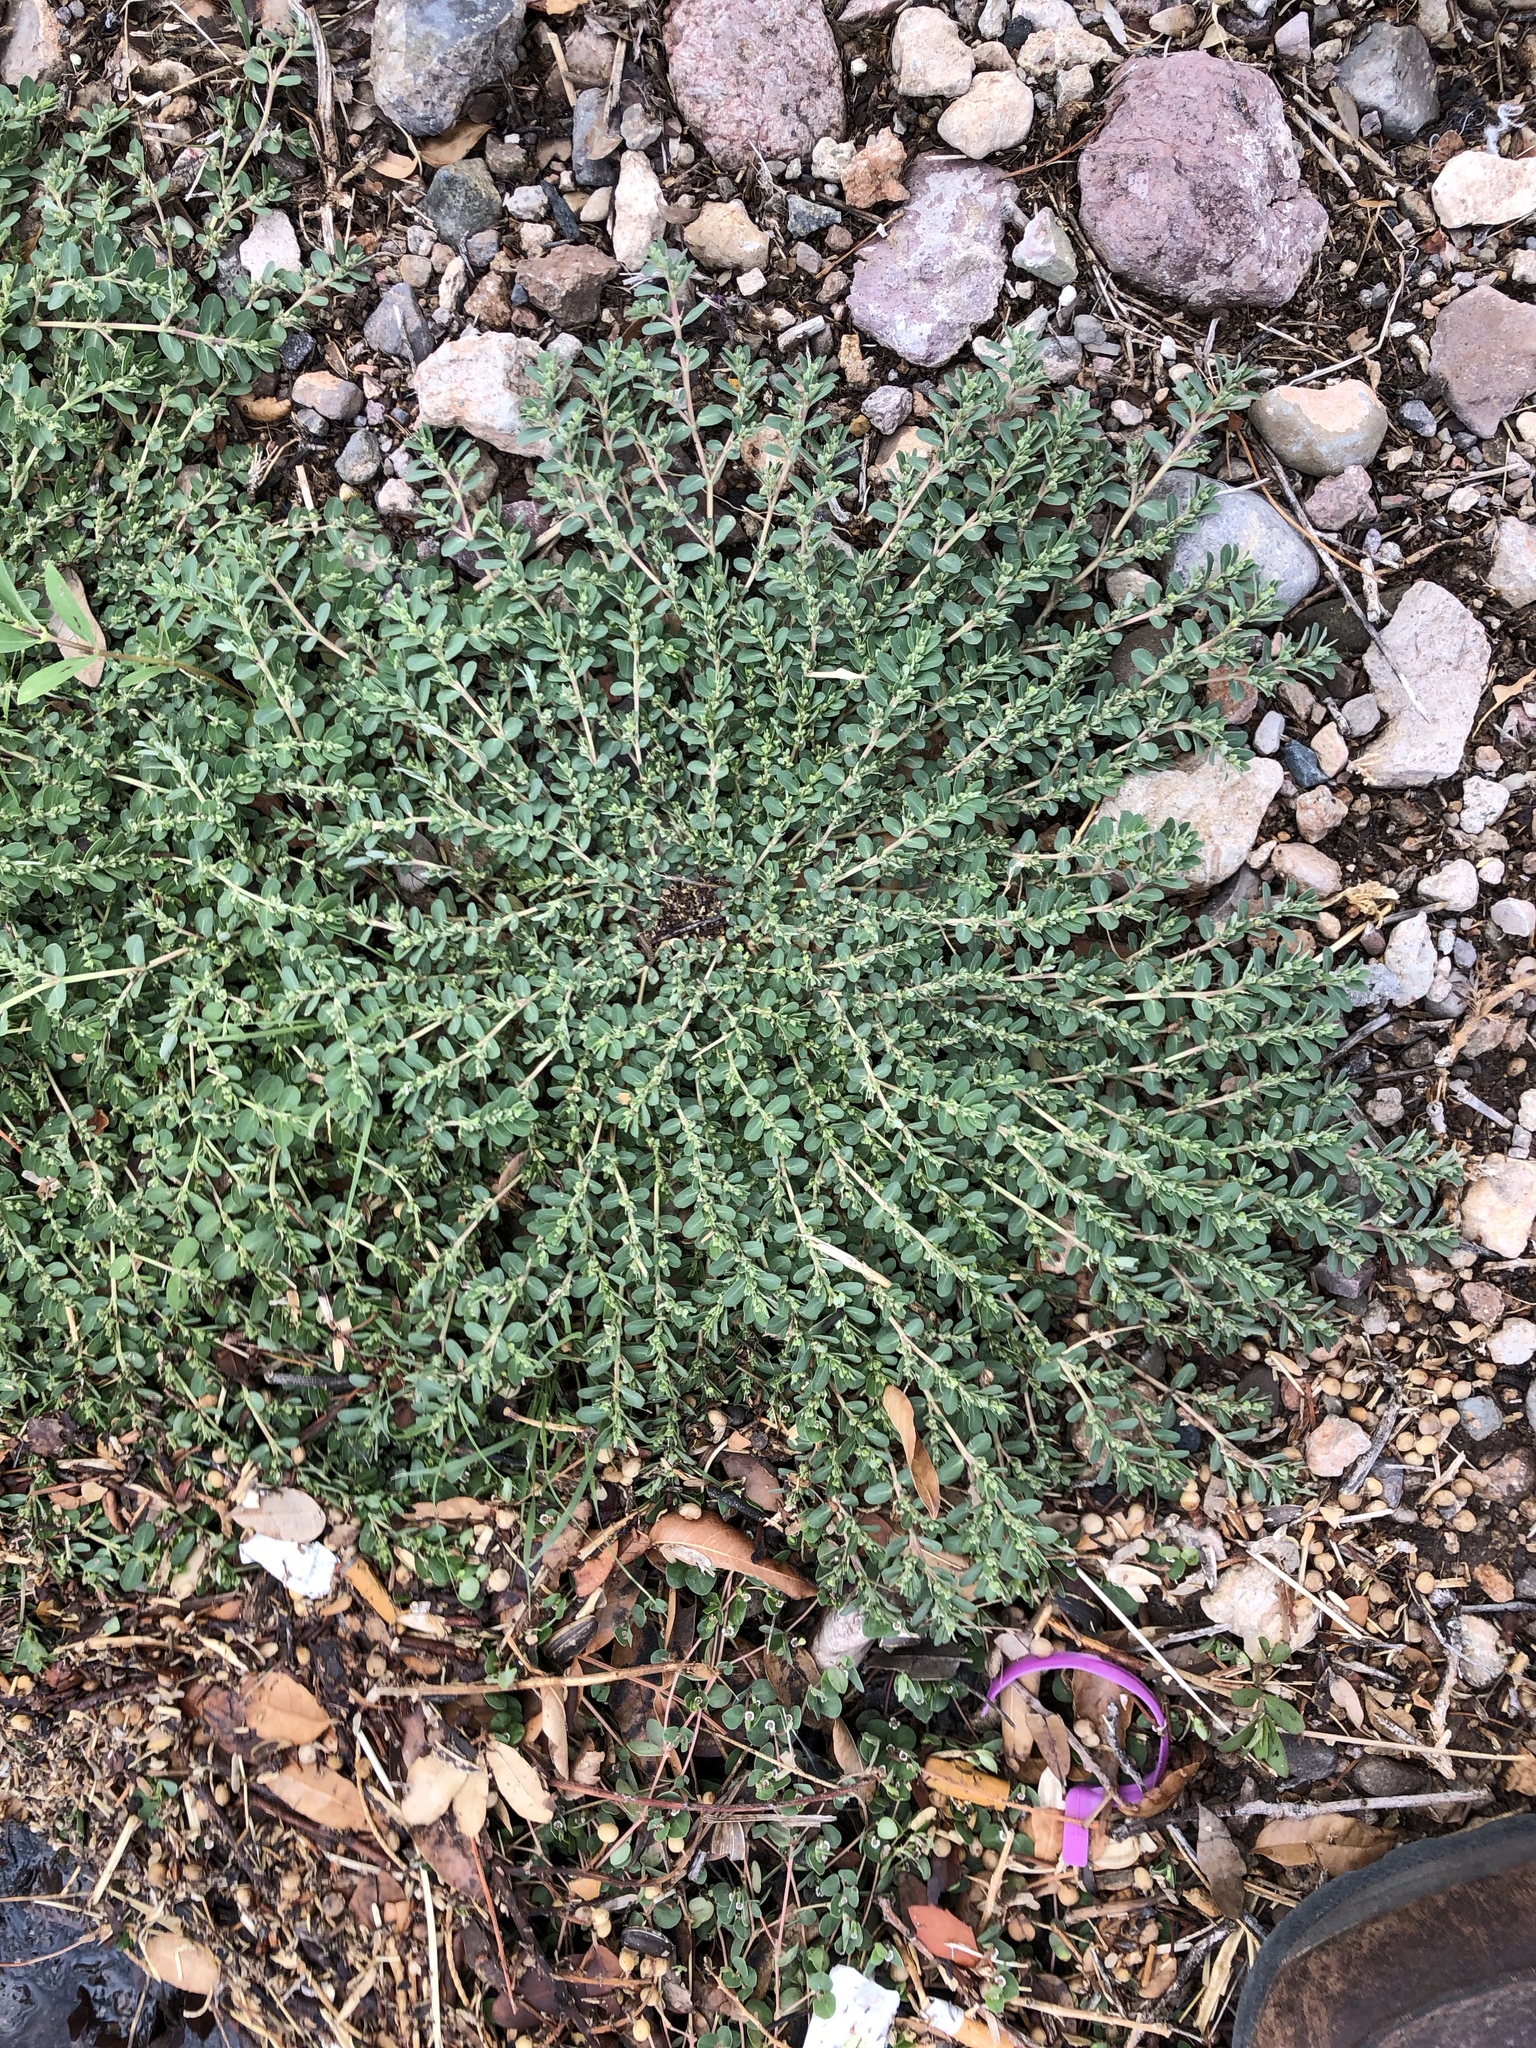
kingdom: Plantae
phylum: Tracheophyta
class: Magnoliopsida
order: Malpighiales
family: Euphorbiaceae
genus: Euphorbia
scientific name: Euphorbia prostrata
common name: Prostrate sandmat
